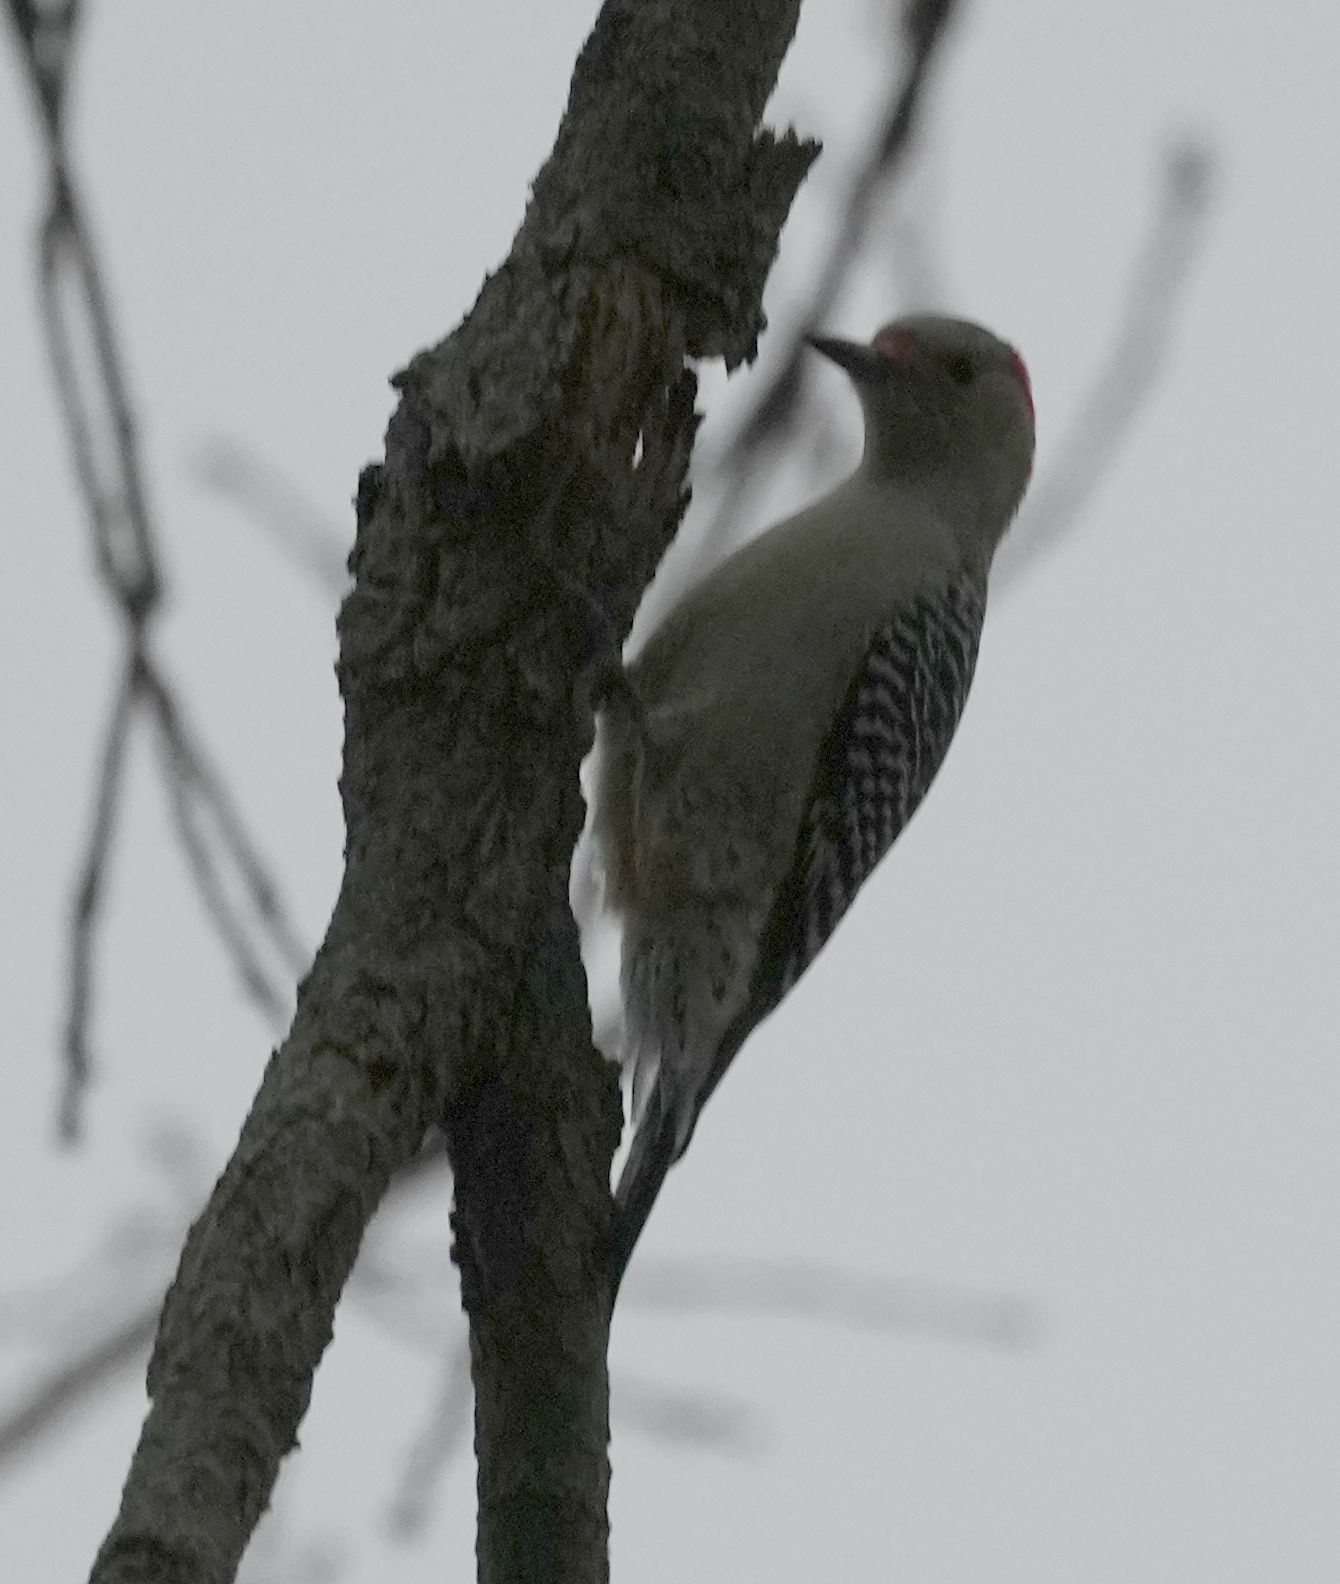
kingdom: Animalia
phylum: Chordata
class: Aves
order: Piciformes
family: Picidae
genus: Melanerpes
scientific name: Melanerpes carolinus
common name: Red-bellied woodpecker
